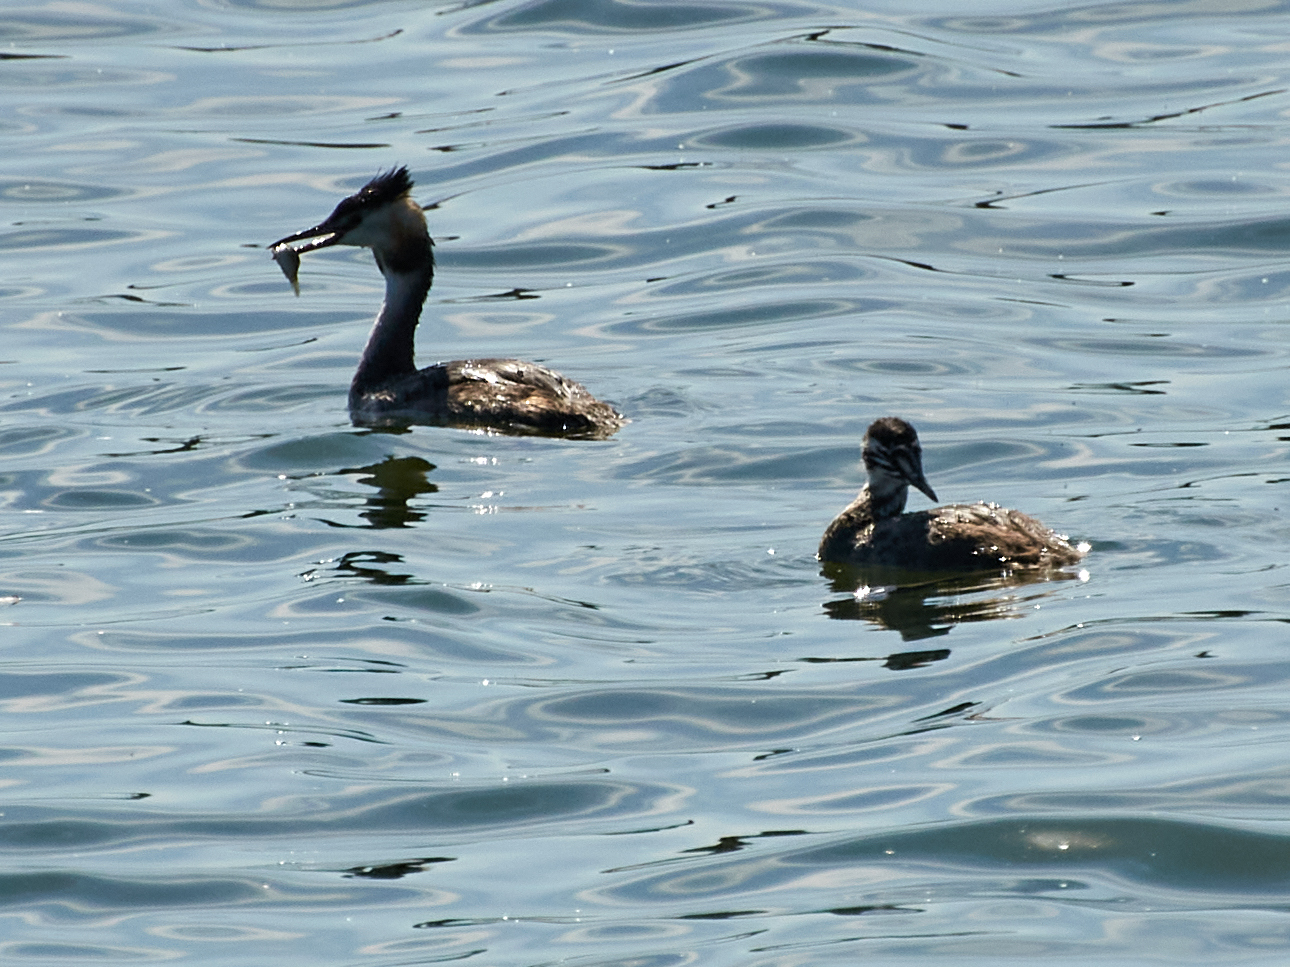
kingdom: Animalia
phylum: Chordata
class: Aves
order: Podicipediformes
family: Podicipedidae
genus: Podiceps
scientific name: Podiceps cristatus
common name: Great crested grebe
